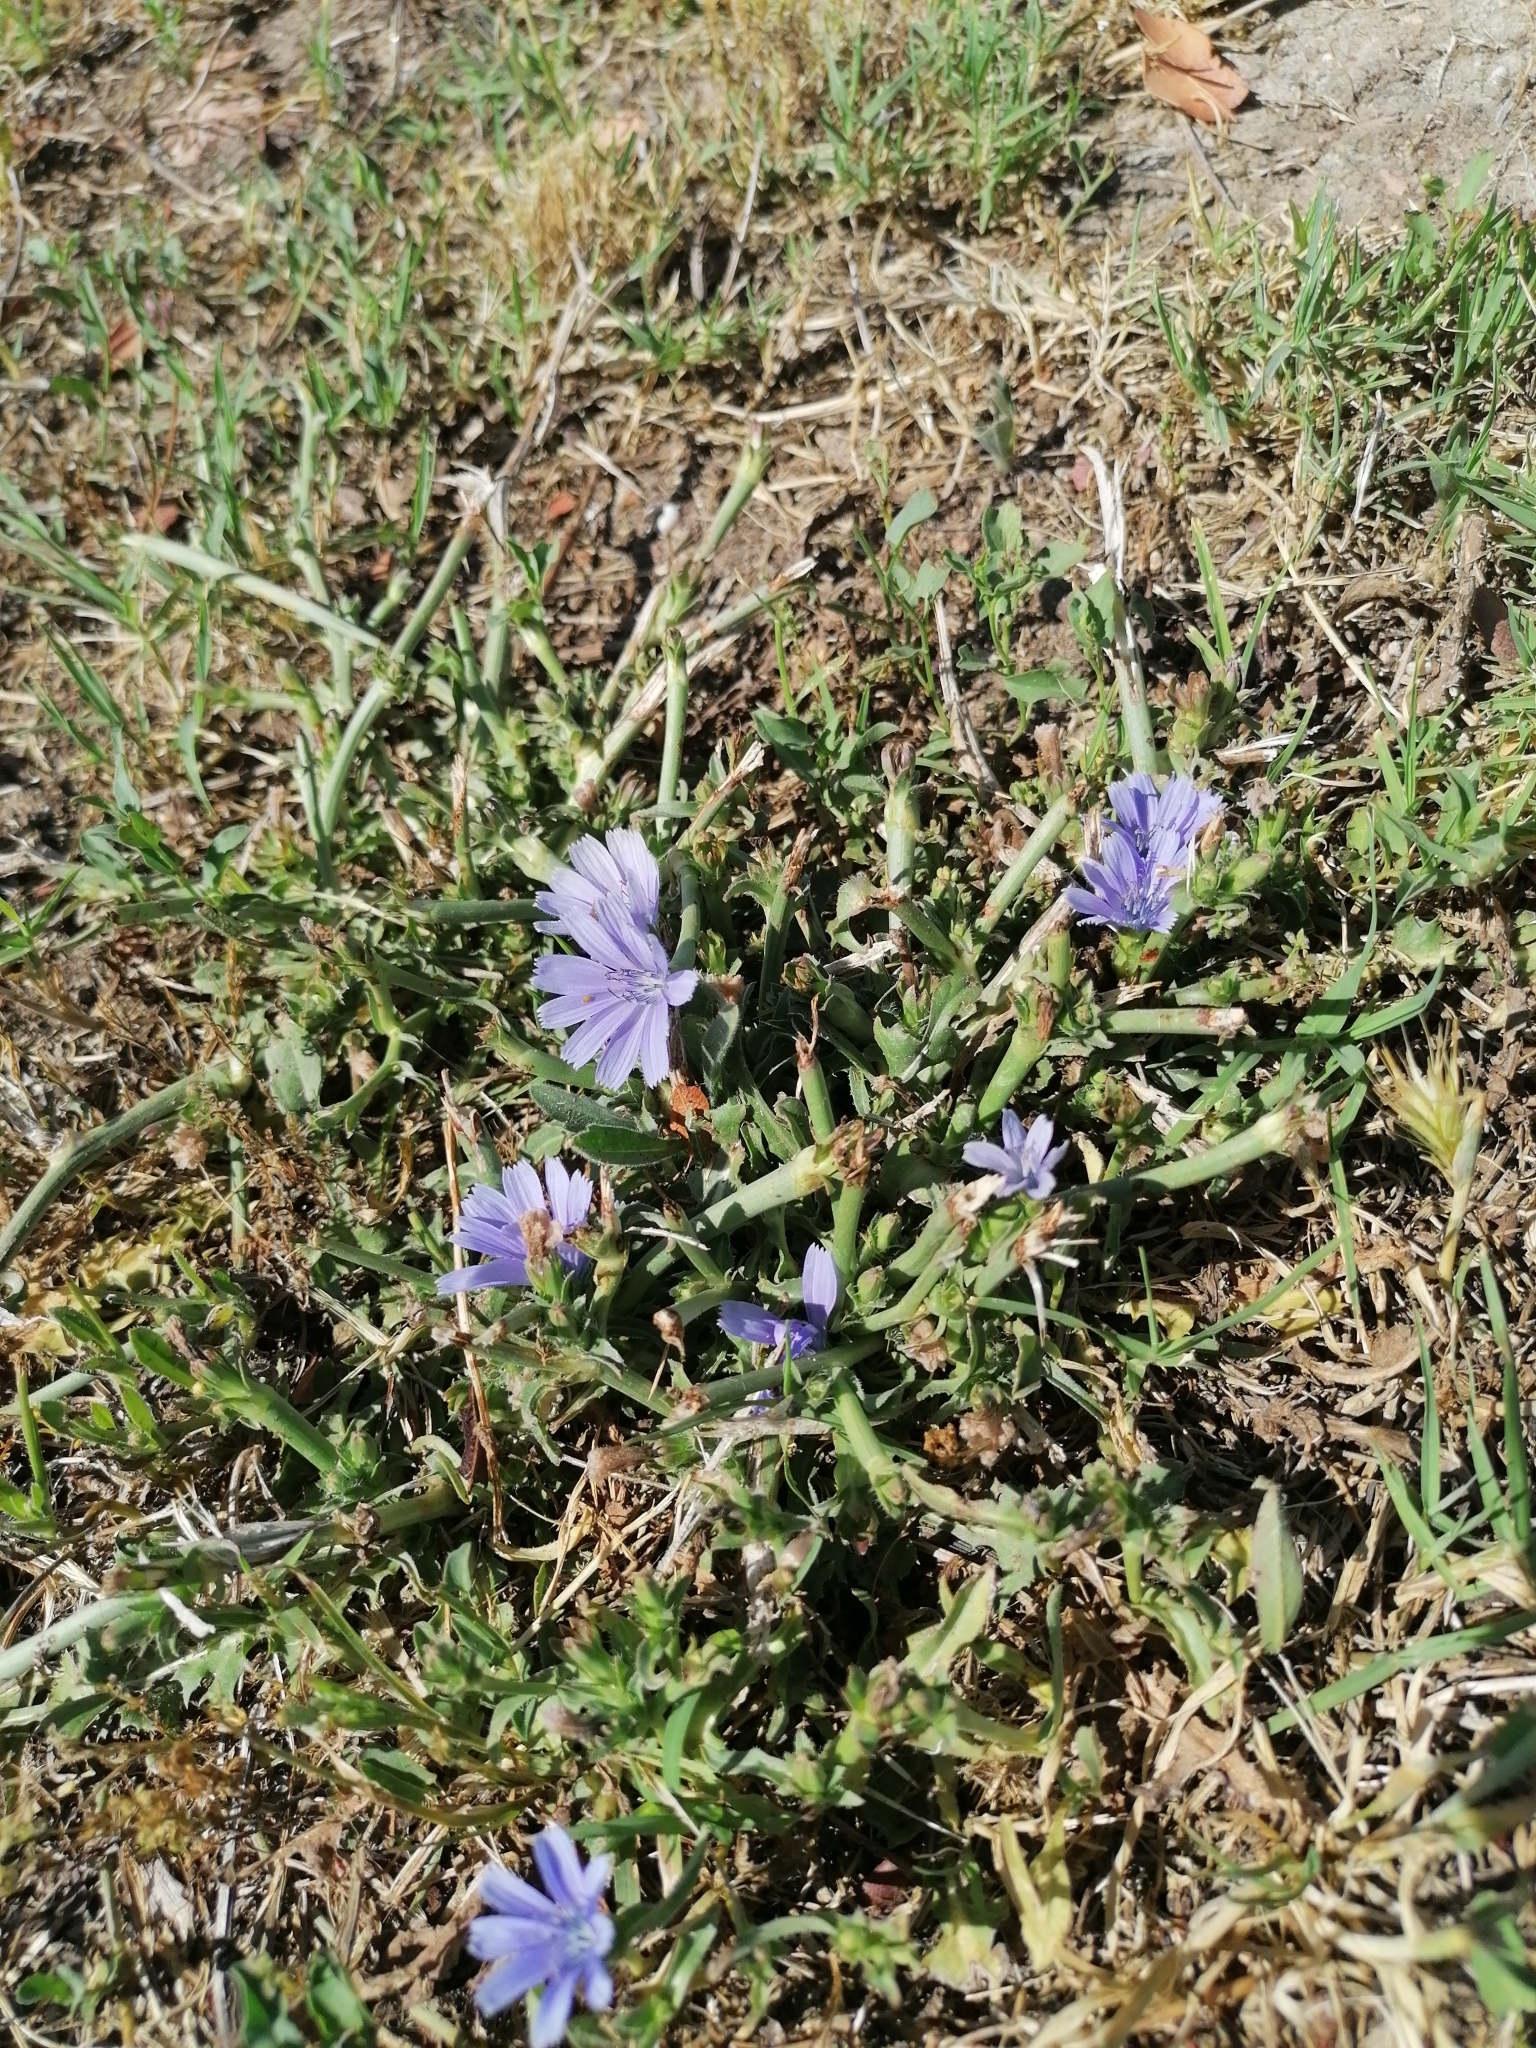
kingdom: Plantae
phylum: Tracheophyta
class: Magnoliopsida
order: Asterales
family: Asteraceae
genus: Cichorium
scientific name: Cichorium intybus
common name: Chicory
